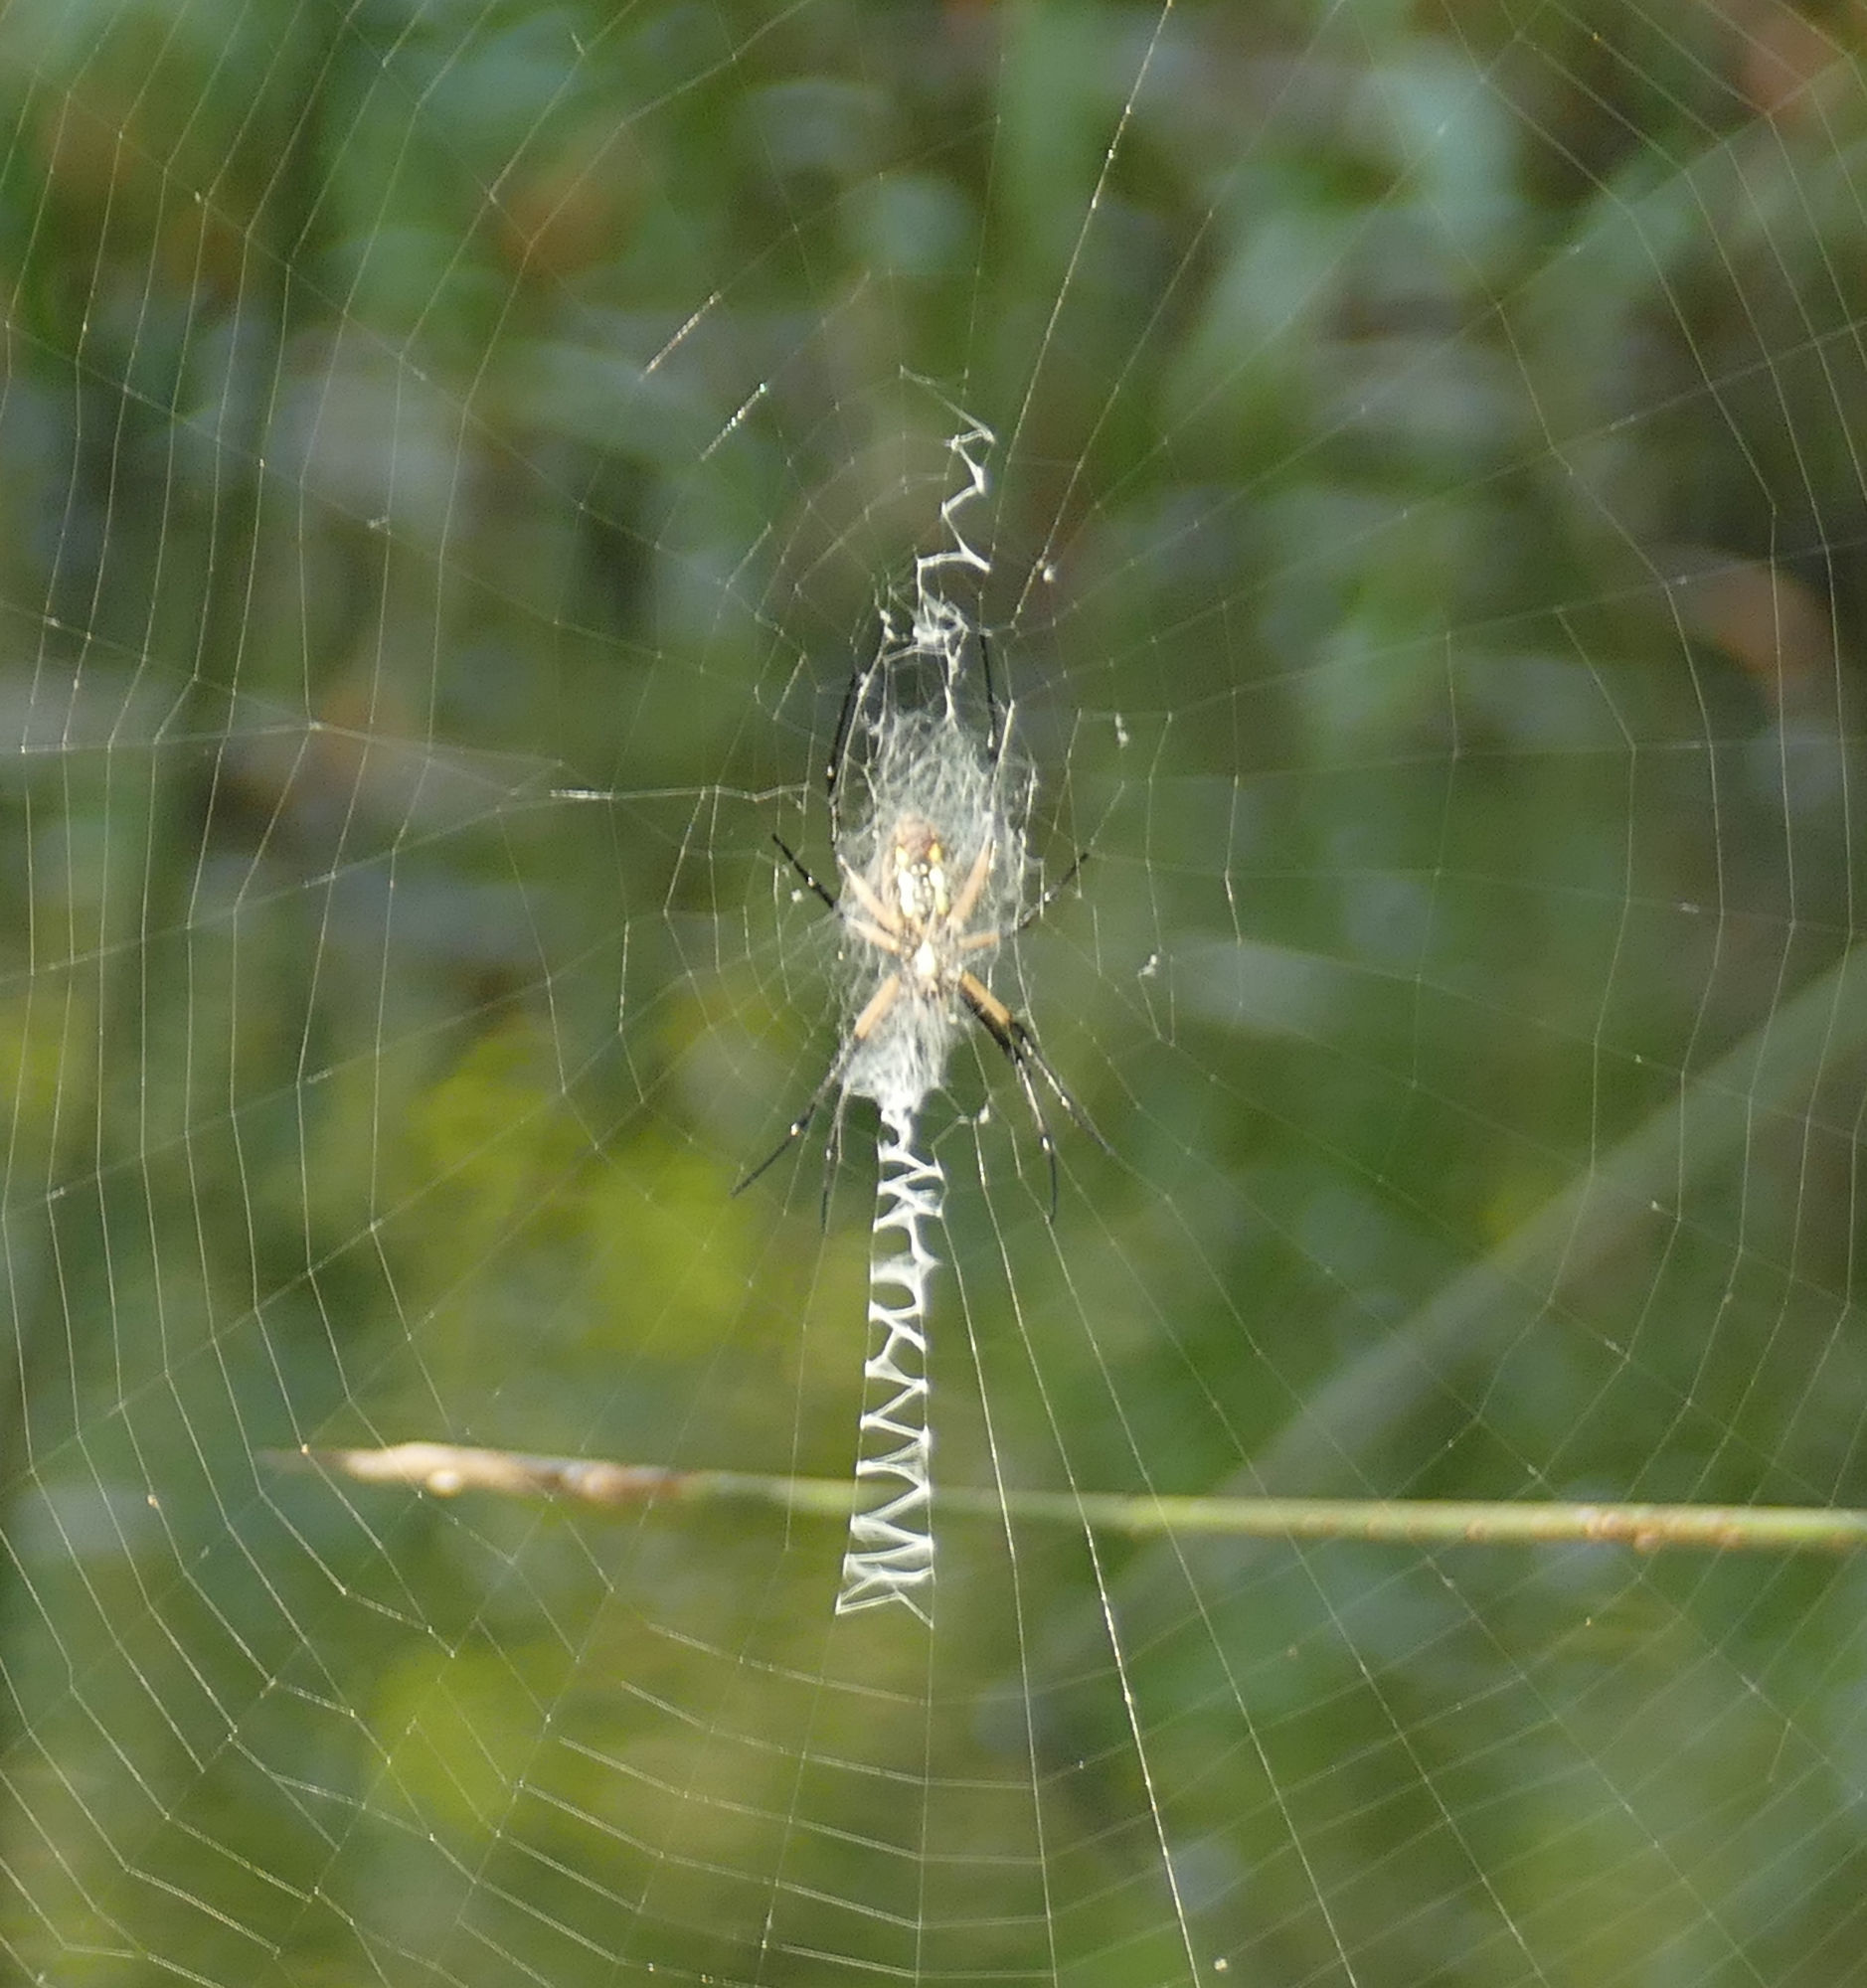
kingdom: Animalia
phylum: Arthropoda
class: Arachnida
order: Araneae
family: Araneidae
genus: Argiope
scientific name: Argiope aurantia
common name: Orb weavers
